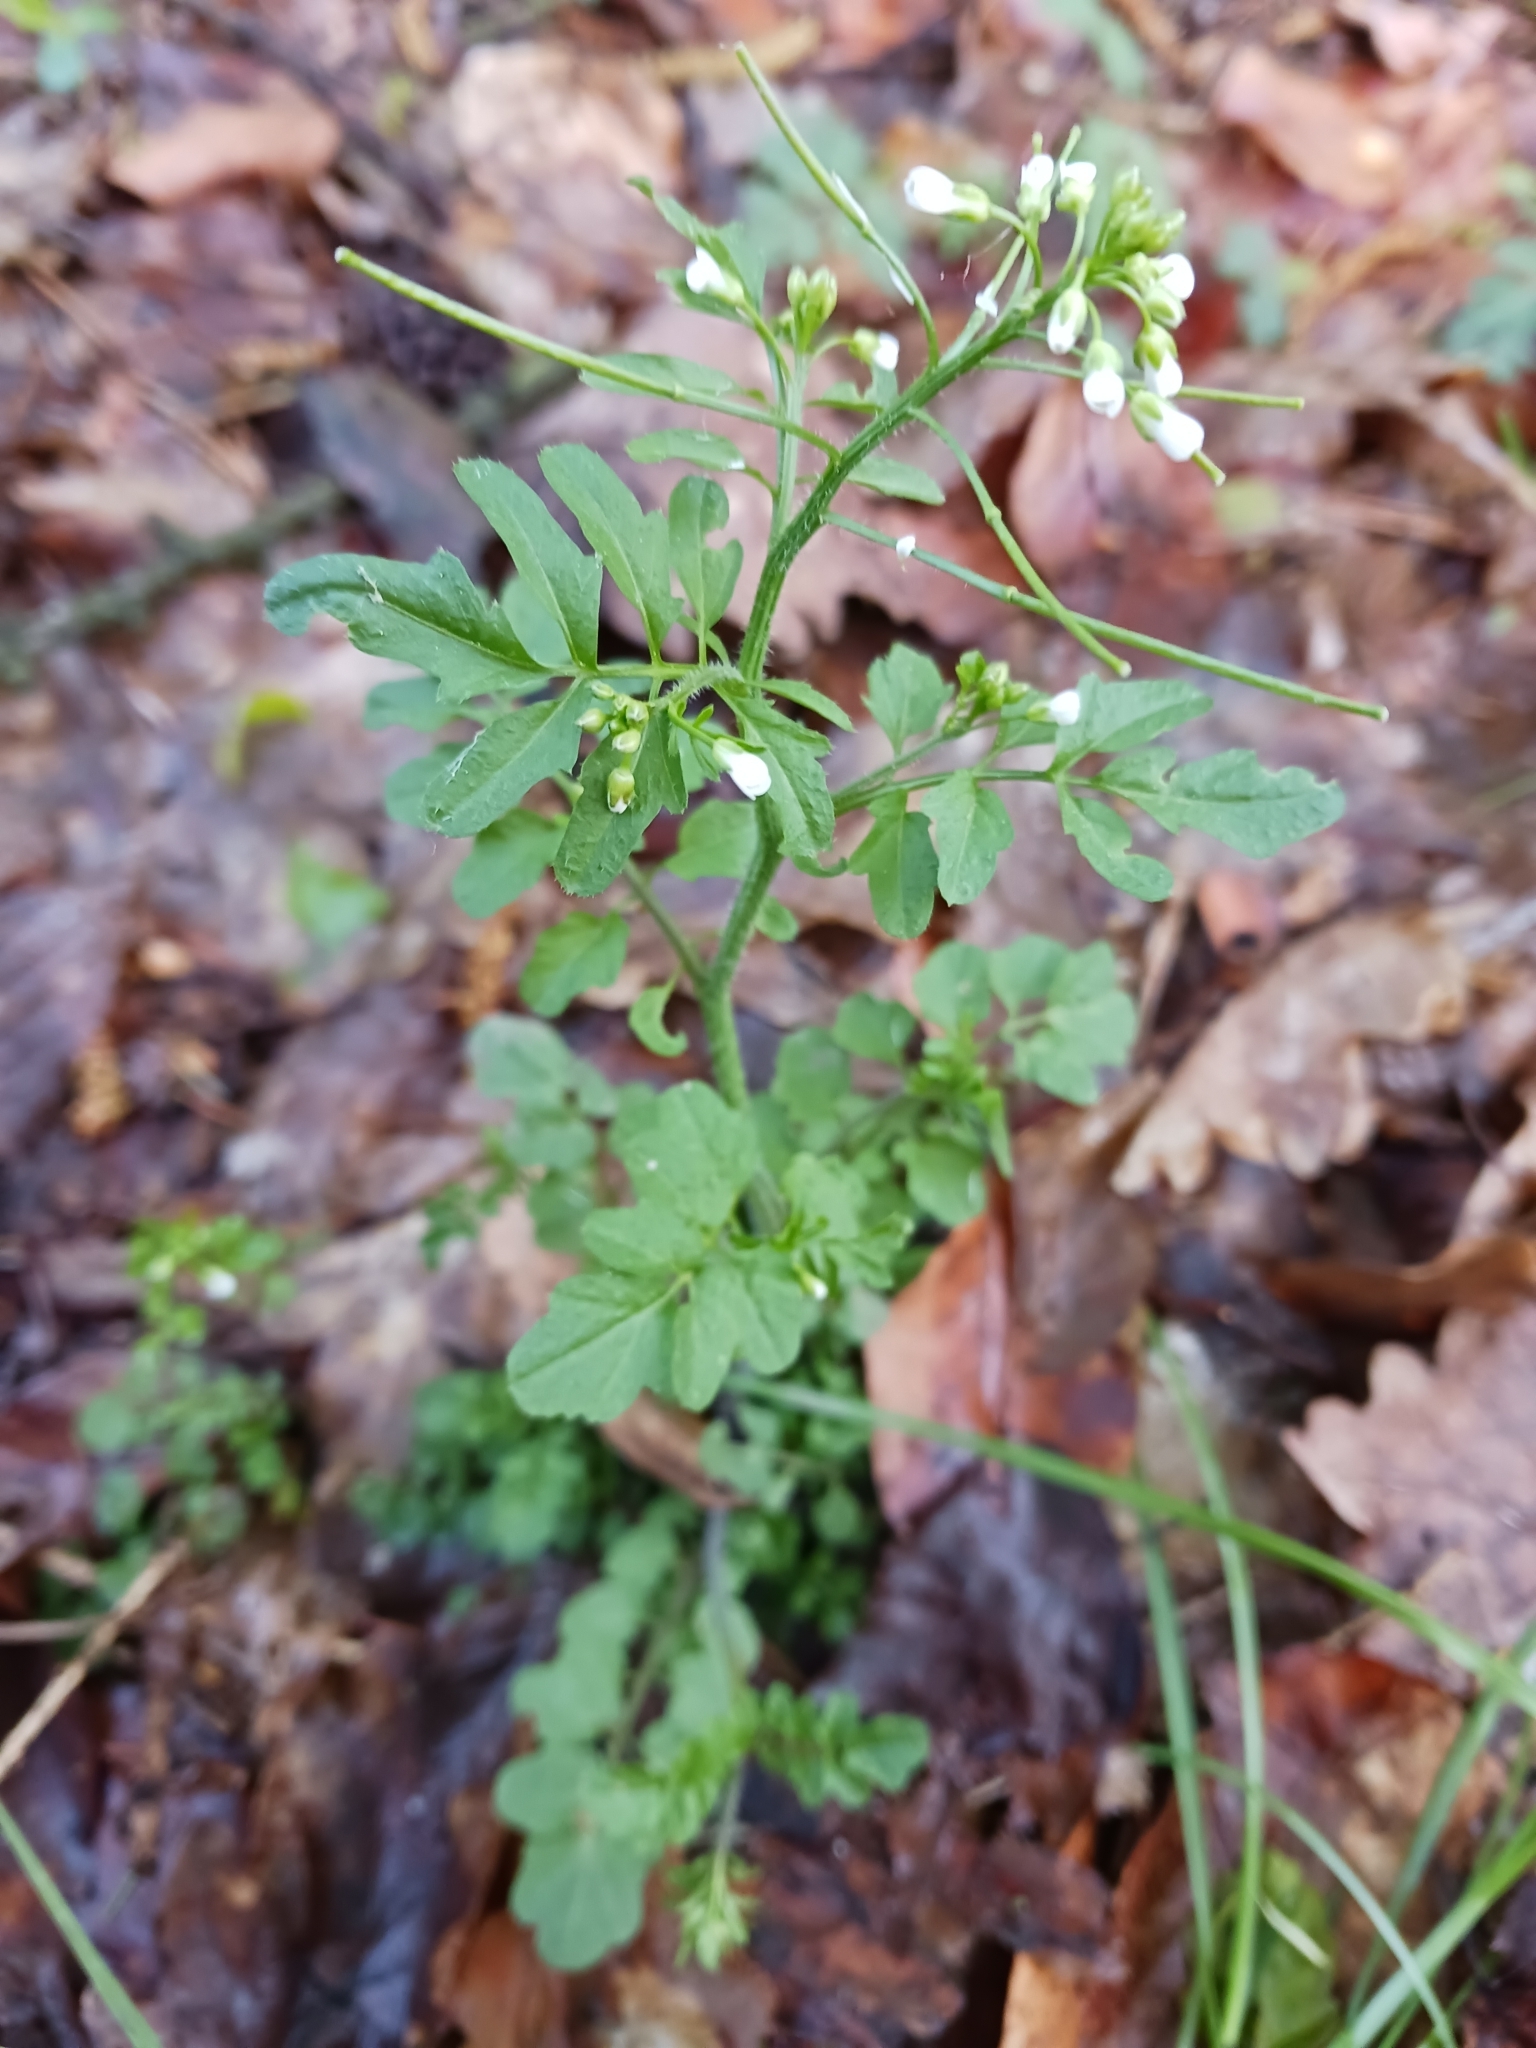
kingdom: Plantae
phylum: Tracheophyta
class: Magnoliopsida
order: Brassicales
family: Brassicaceae
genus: Cardamine
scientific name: Cardamine flexuosa
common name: Woodland bittercress
